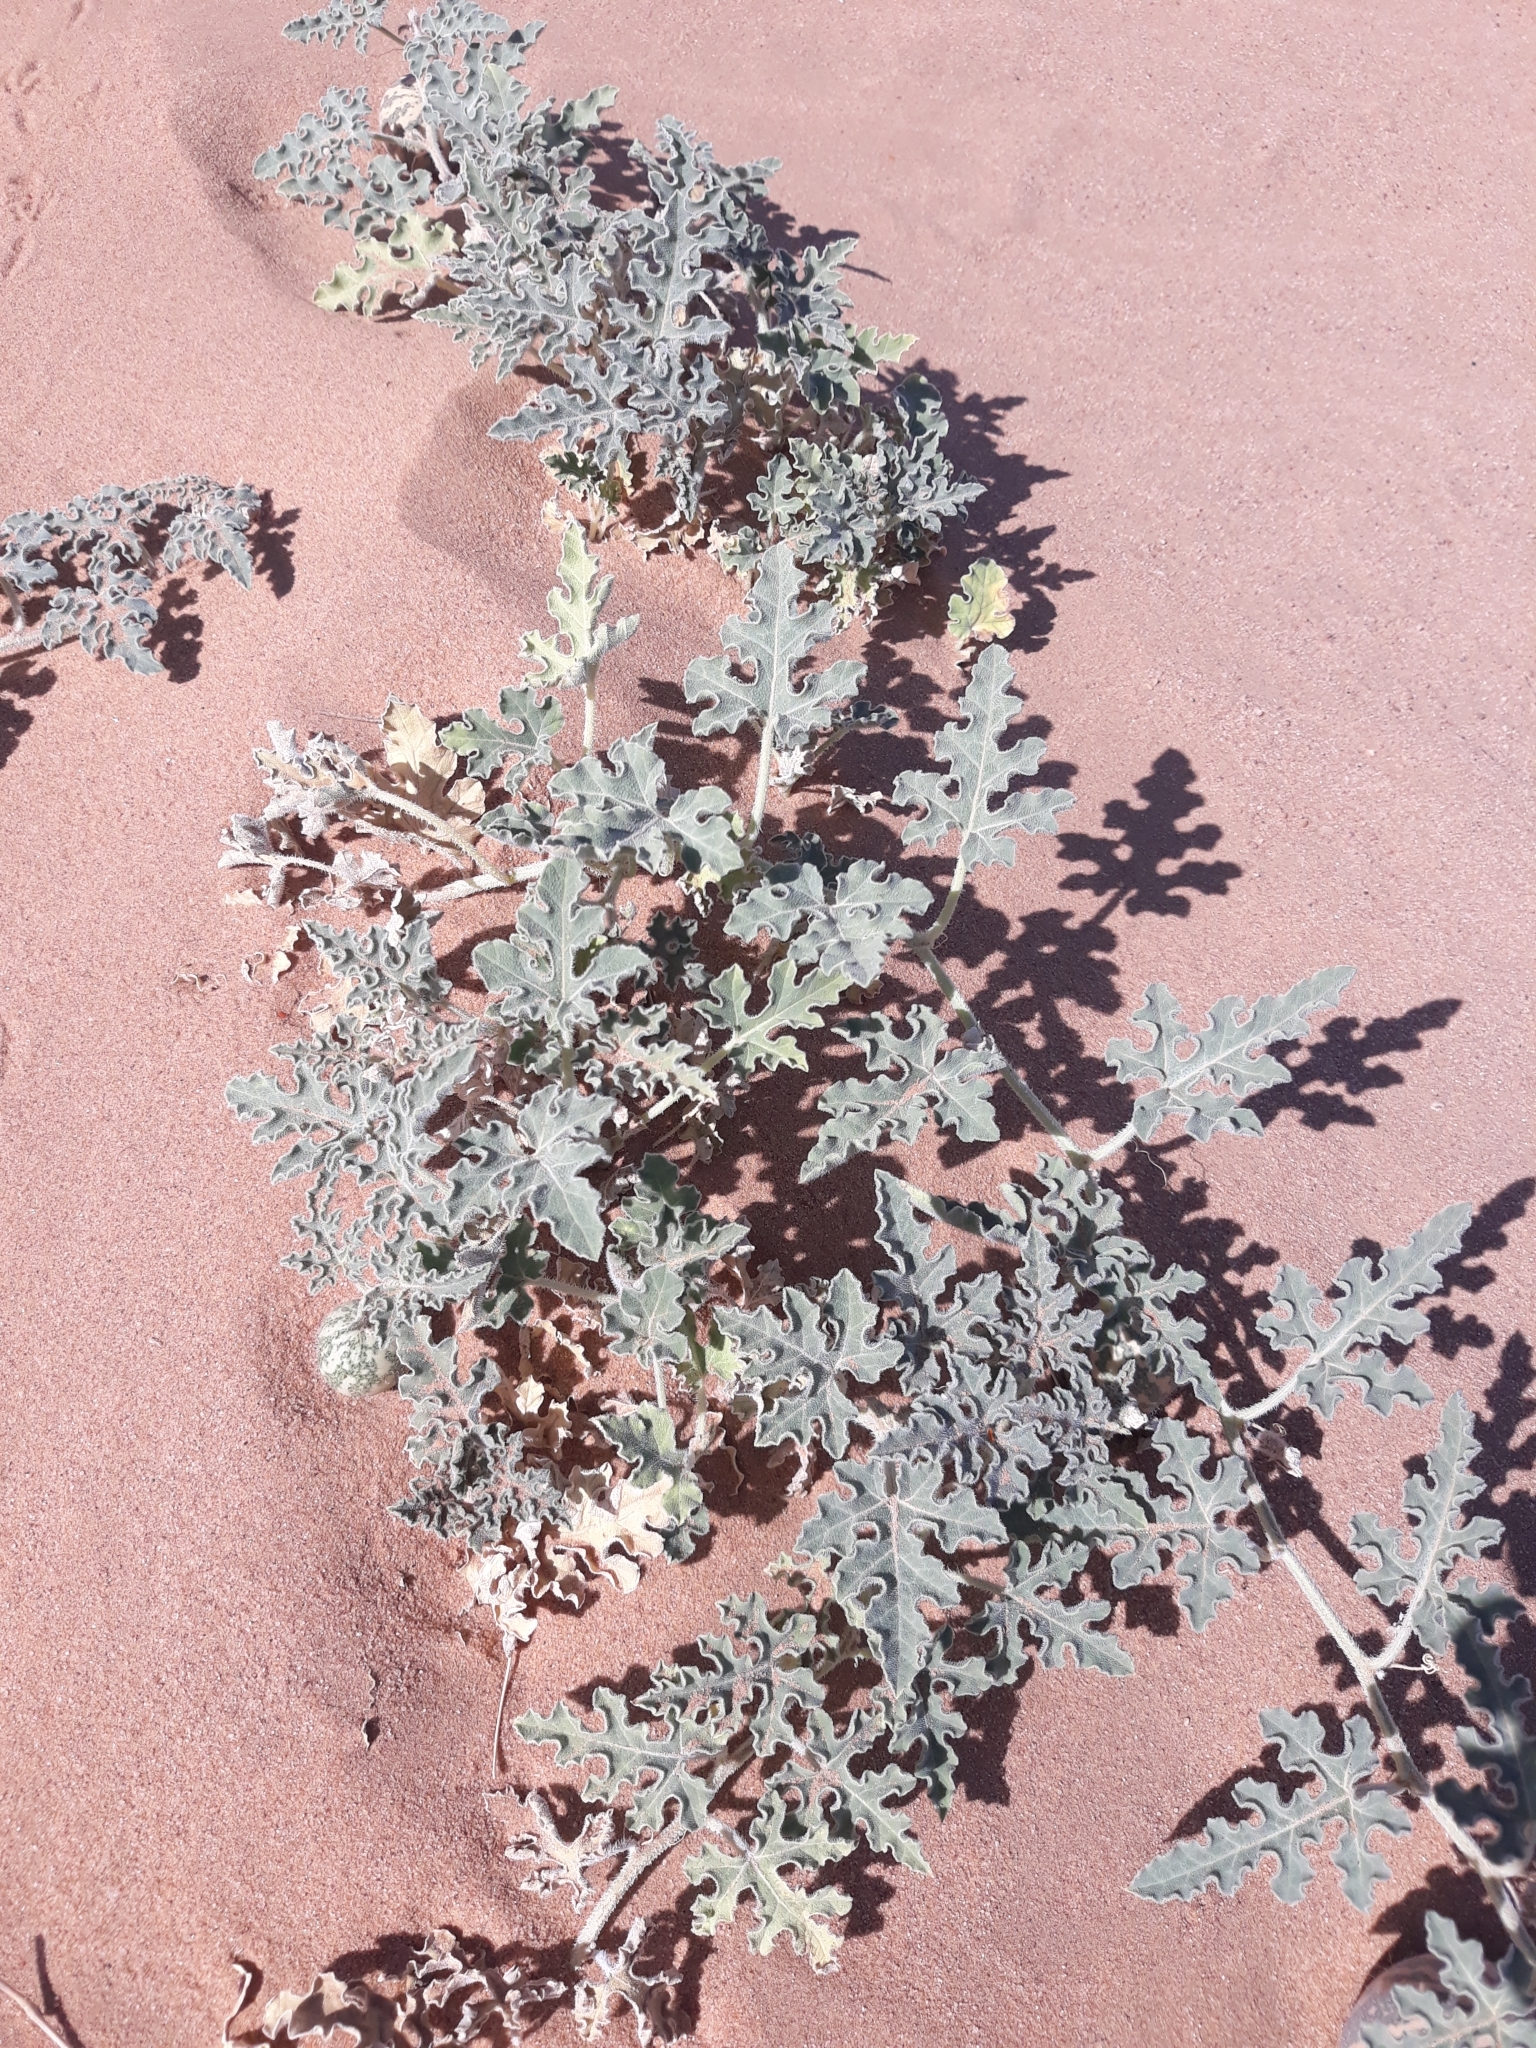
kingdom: Plantae
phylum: Tracheophyta
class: Magnoliopsida
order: Cucurbitales
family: Cucurbitaceae
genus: Citrullus
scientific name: Citrullus colocynthis
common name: Colocynth
